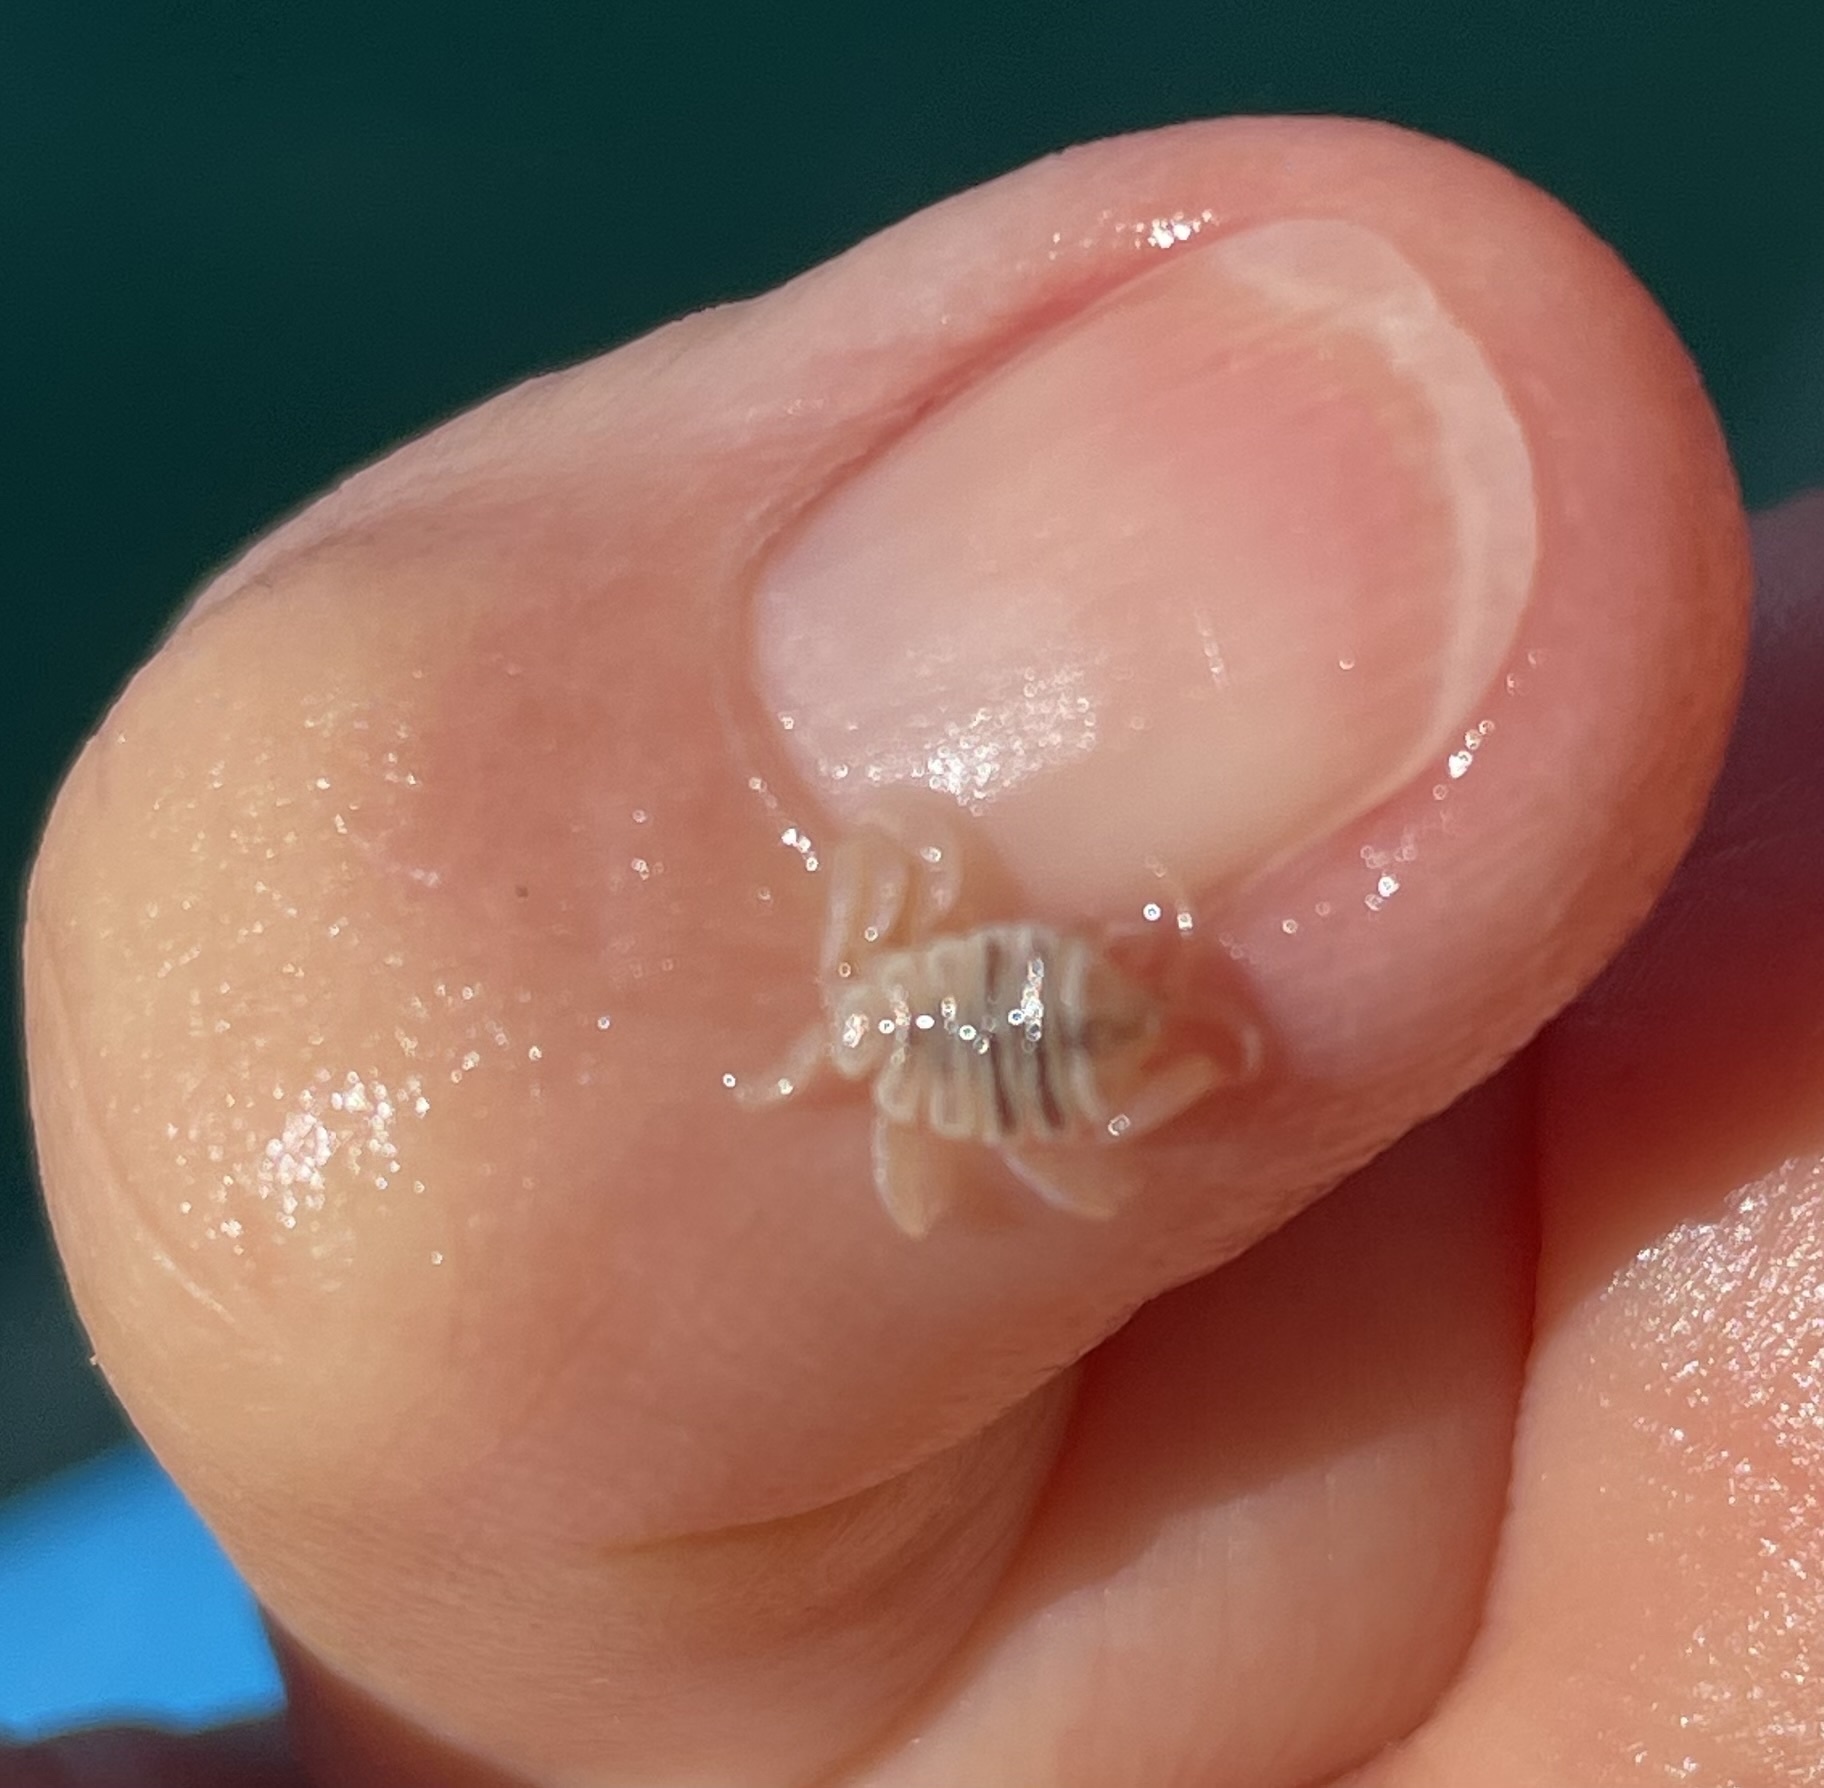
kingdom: Animalia
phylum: Arthropoda
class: Malacostraca
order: Amphipoda
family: Cyamidae
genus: Cyamus
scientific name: Cyamus scammoni
